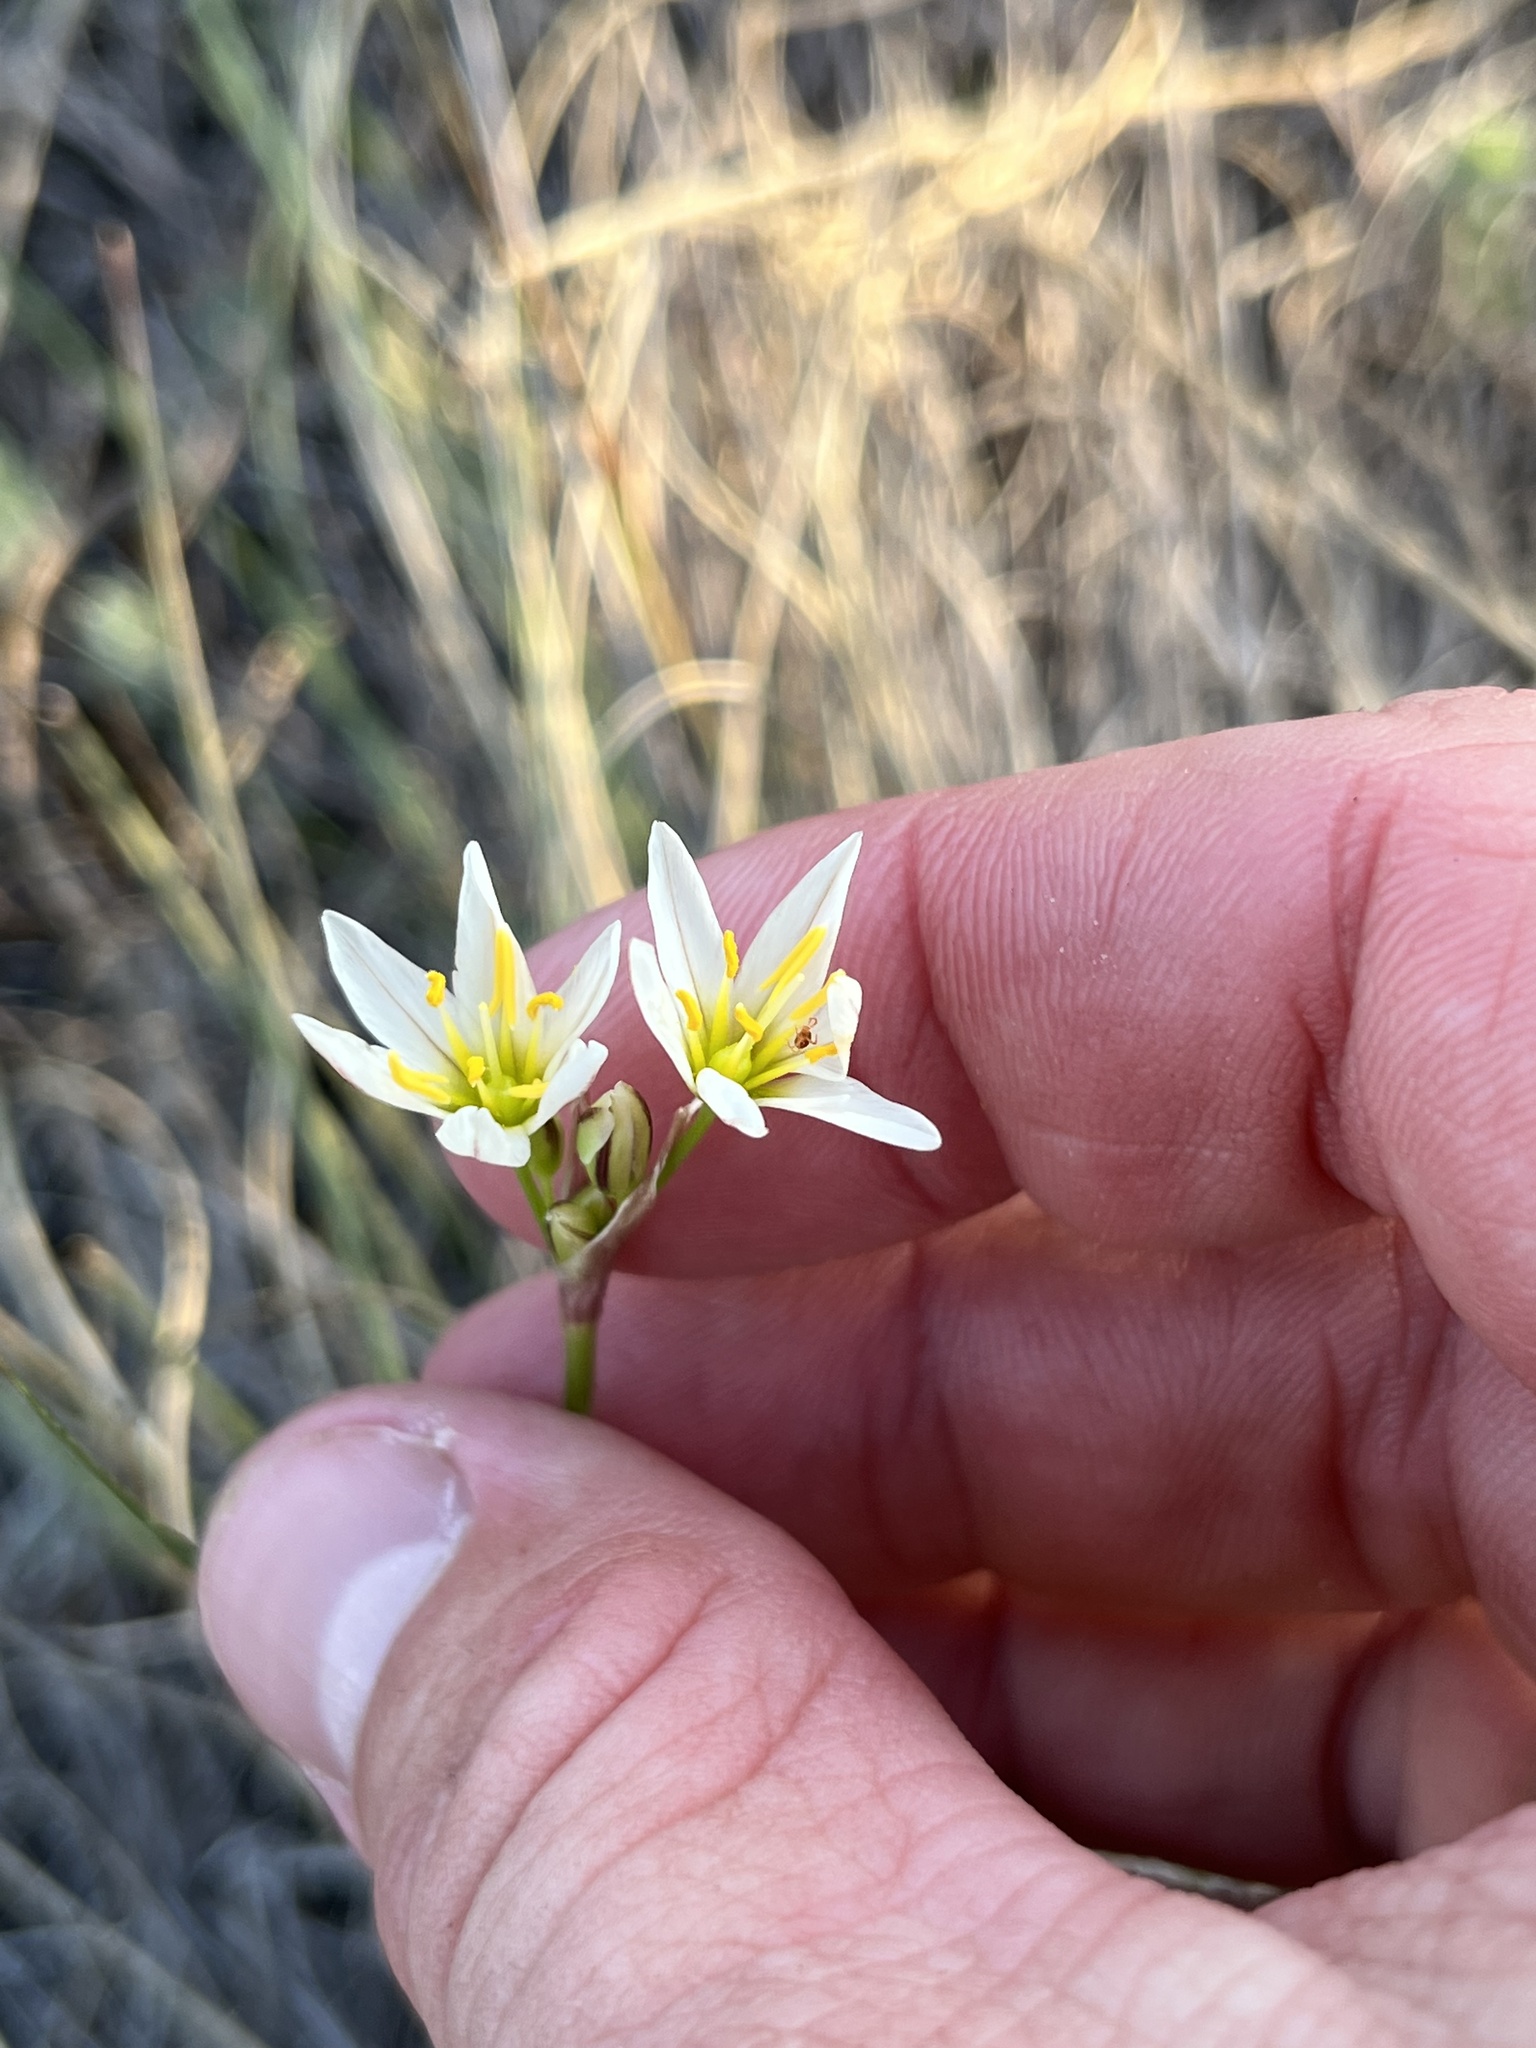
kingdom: Plantae
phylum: Tracheophyta
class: Liliopsida
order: Asparagales
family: Amaryllidaceae
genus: Nothoscordum
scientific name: Nothoscordum bivalve
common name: Crow-poison
